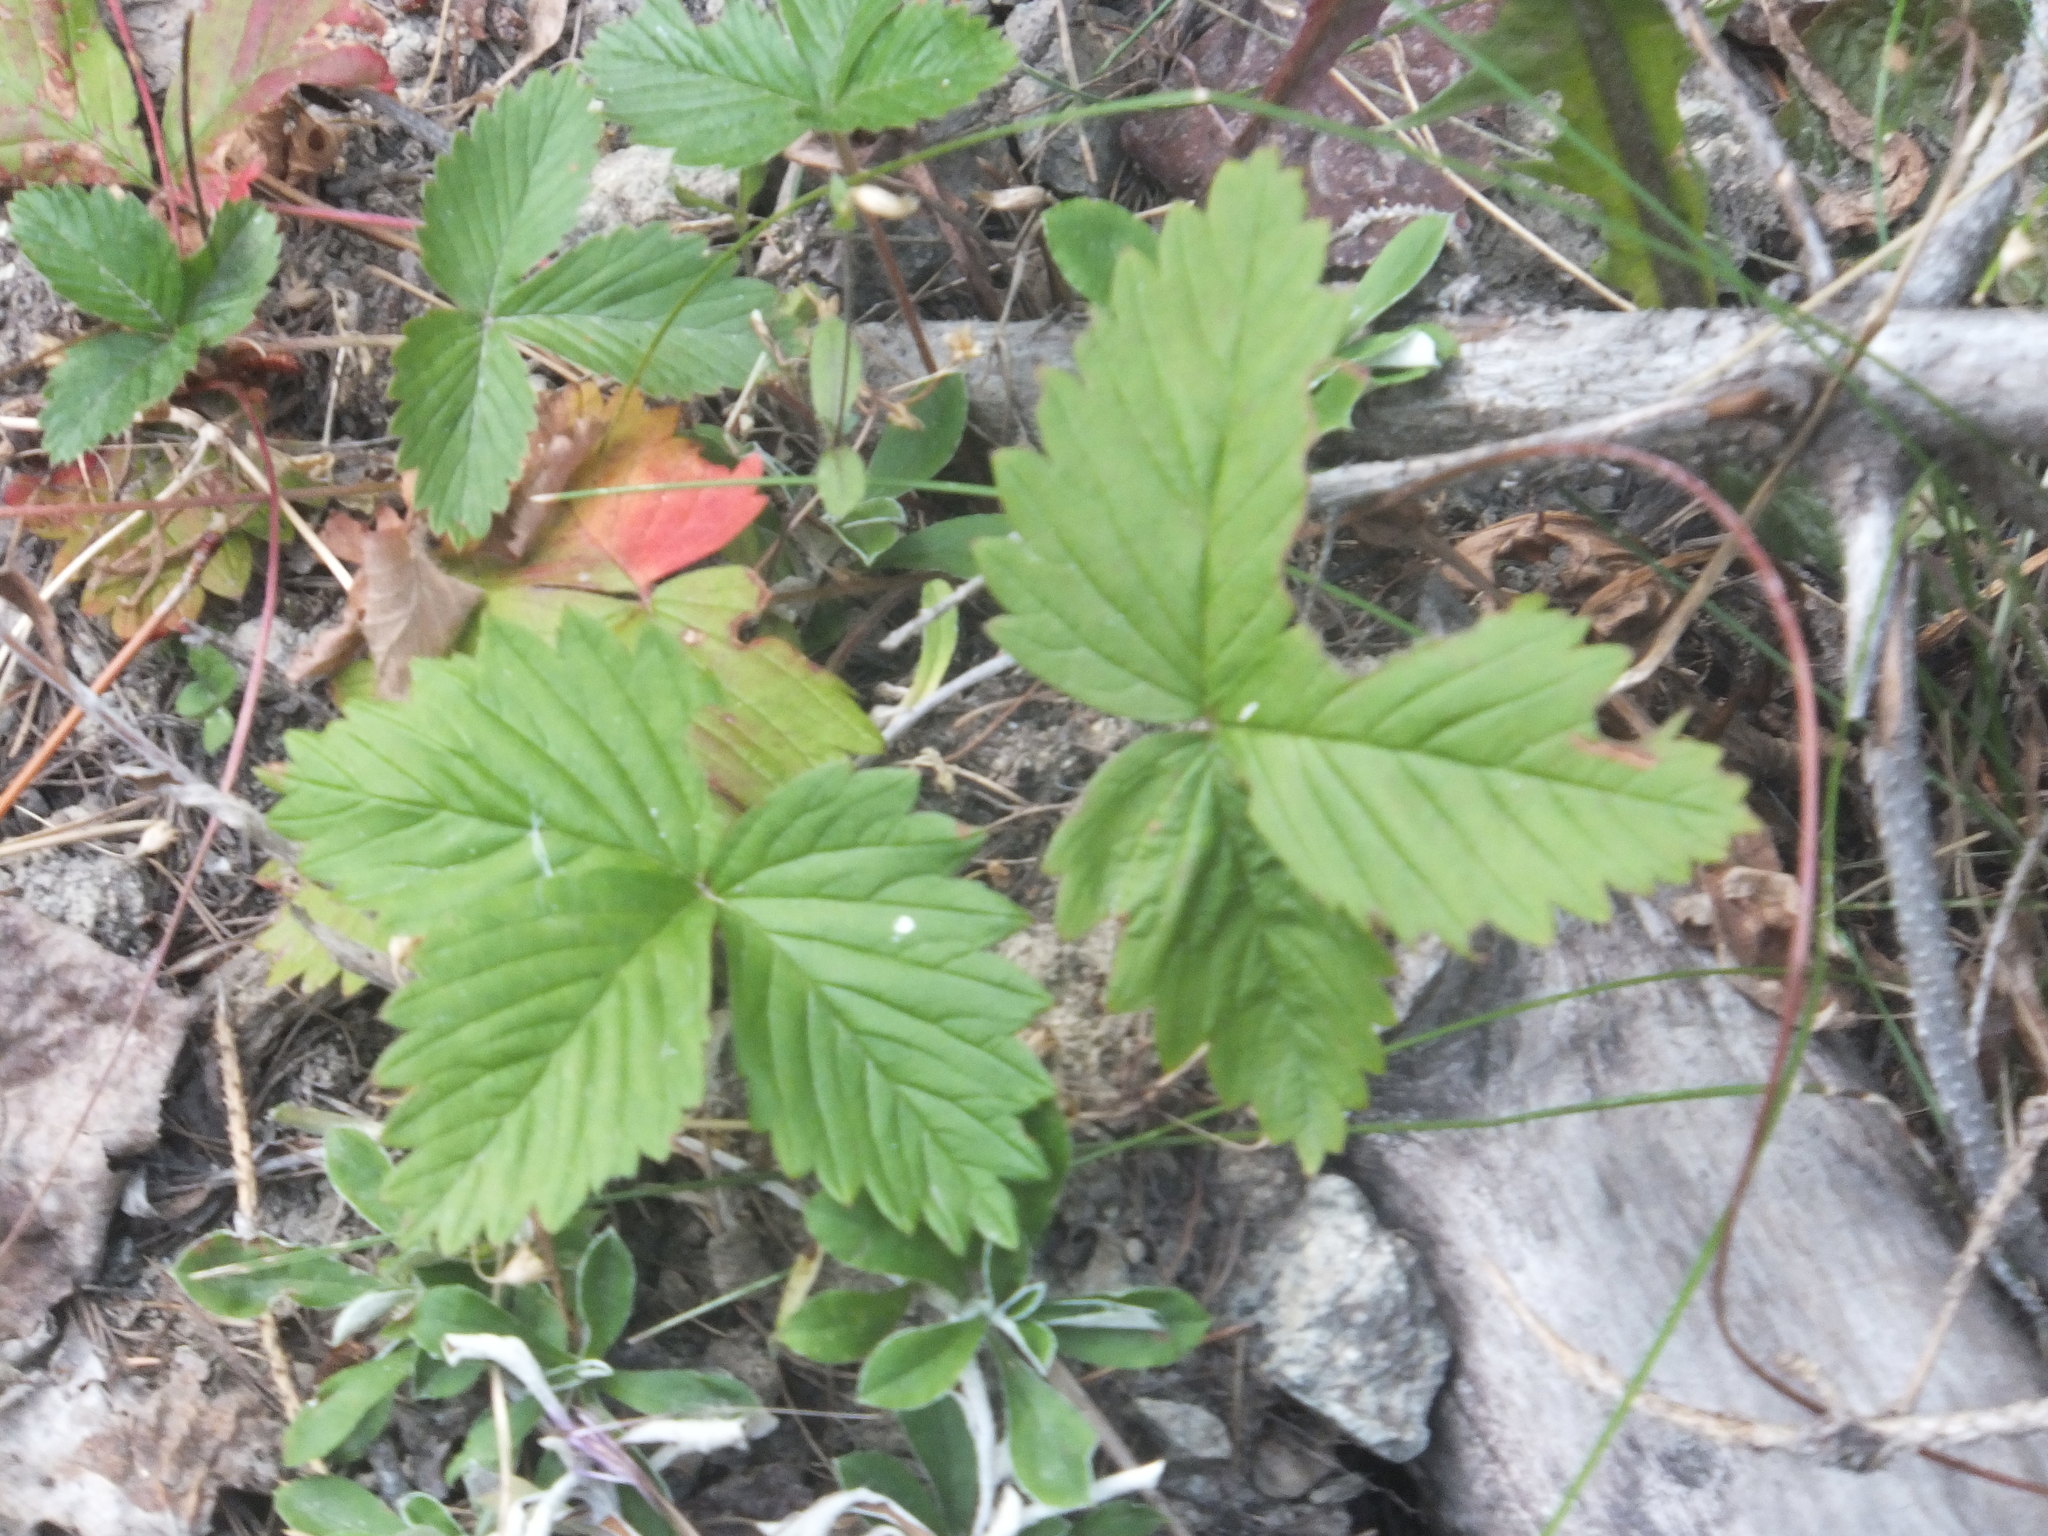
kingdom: Plantae
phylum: Tracheophyta
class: Magnoliopsida
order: Rosales
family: Rosaceae
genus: Fragaria
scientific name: Fragaria vesca
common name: Wild strawberry
